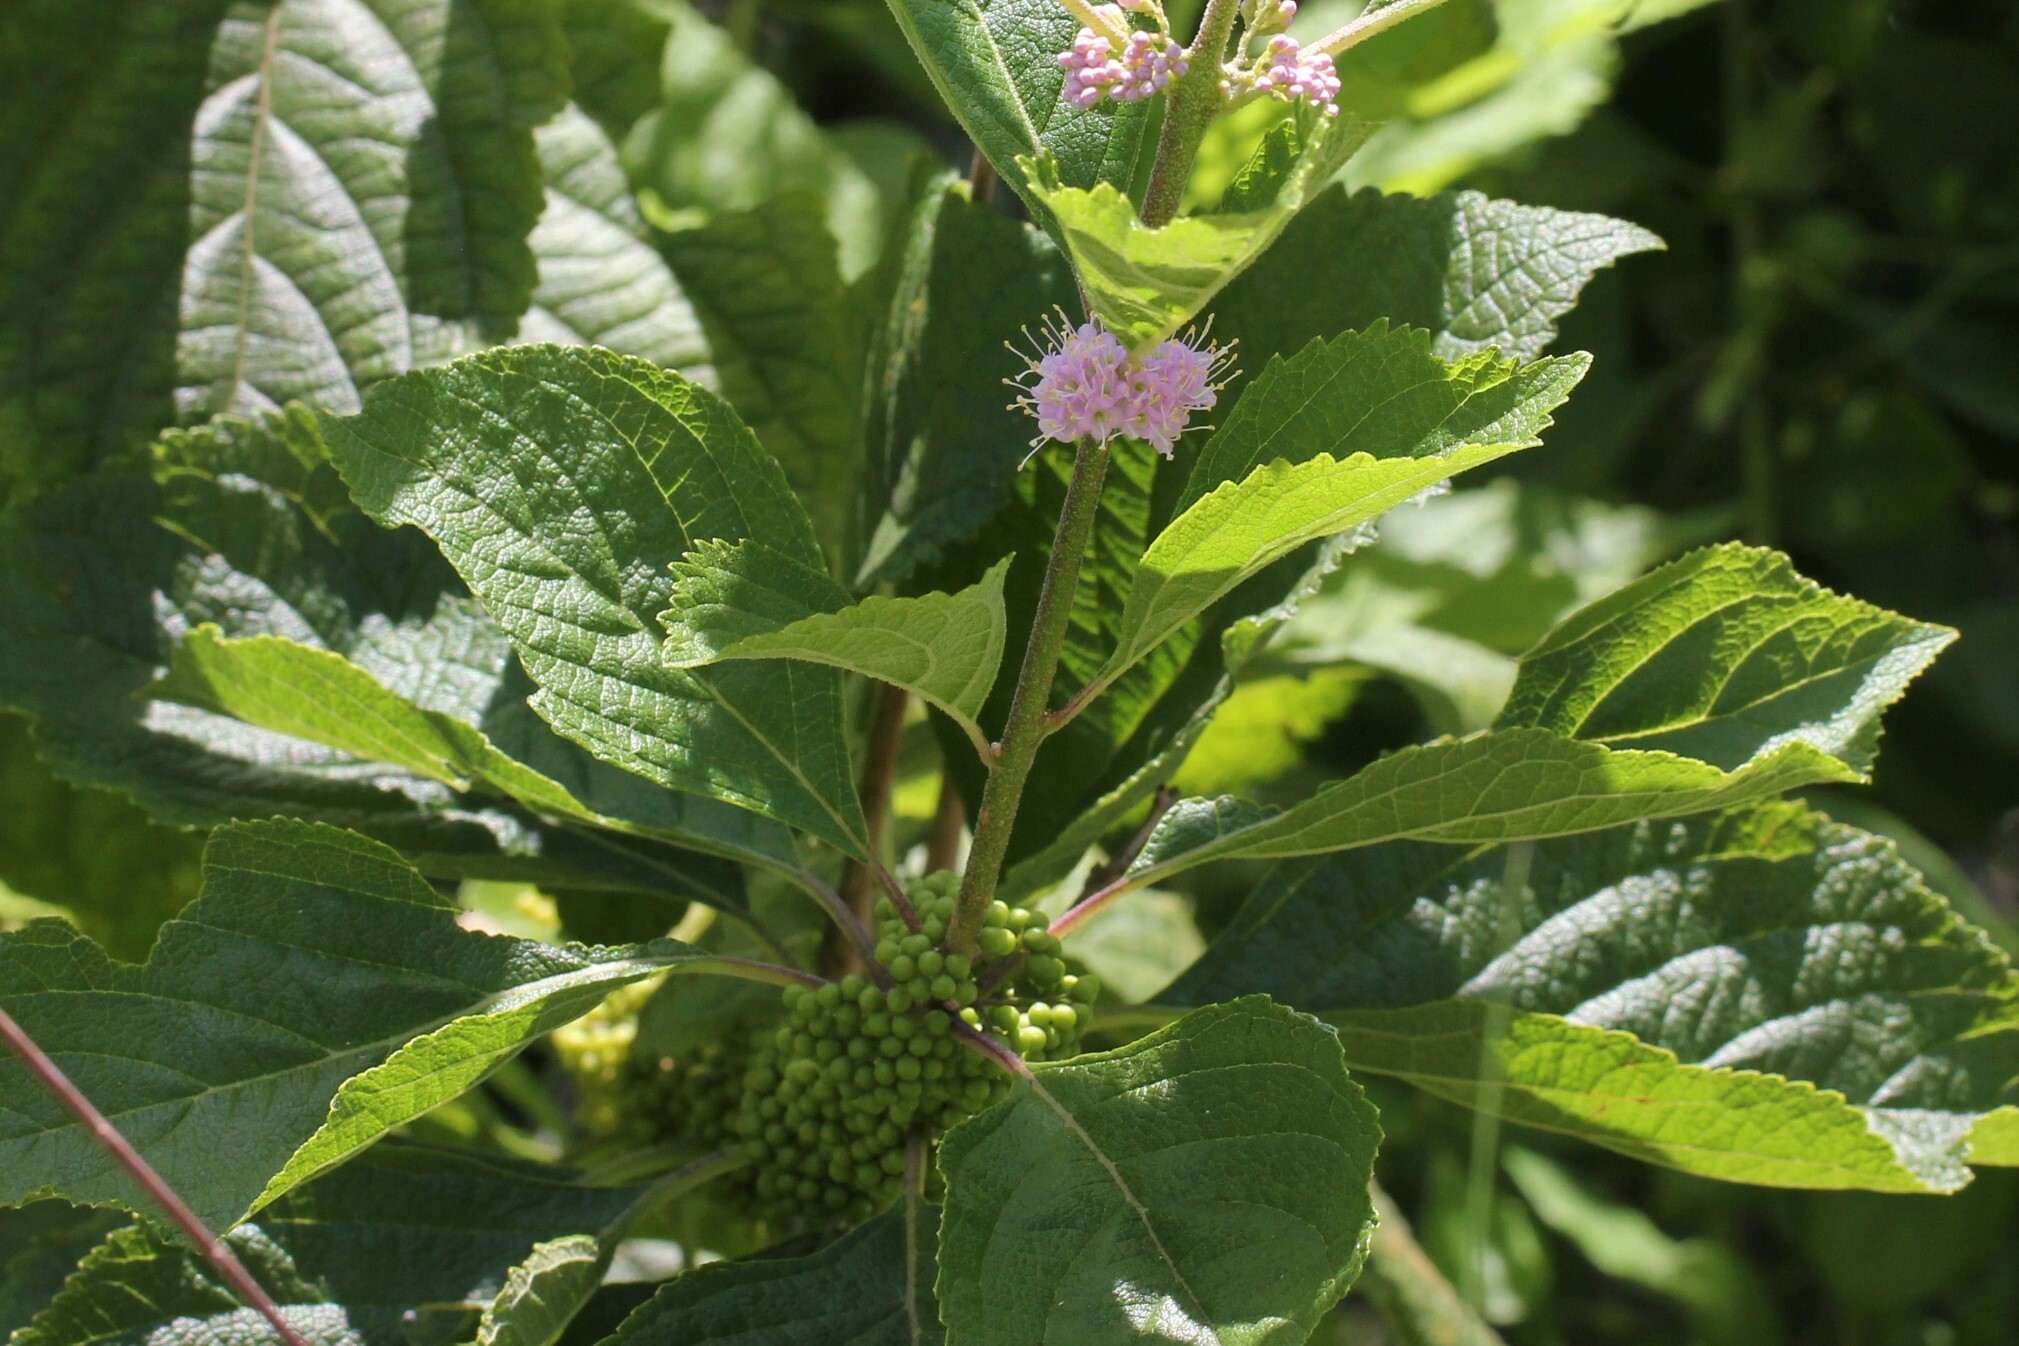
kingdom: Plantae
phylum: Tracheophyta
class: Magnoliopsida
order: Lamiales
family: Lamiaceae
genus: Callicarpa
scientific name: Callicarpa americana
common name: American beautyberry
